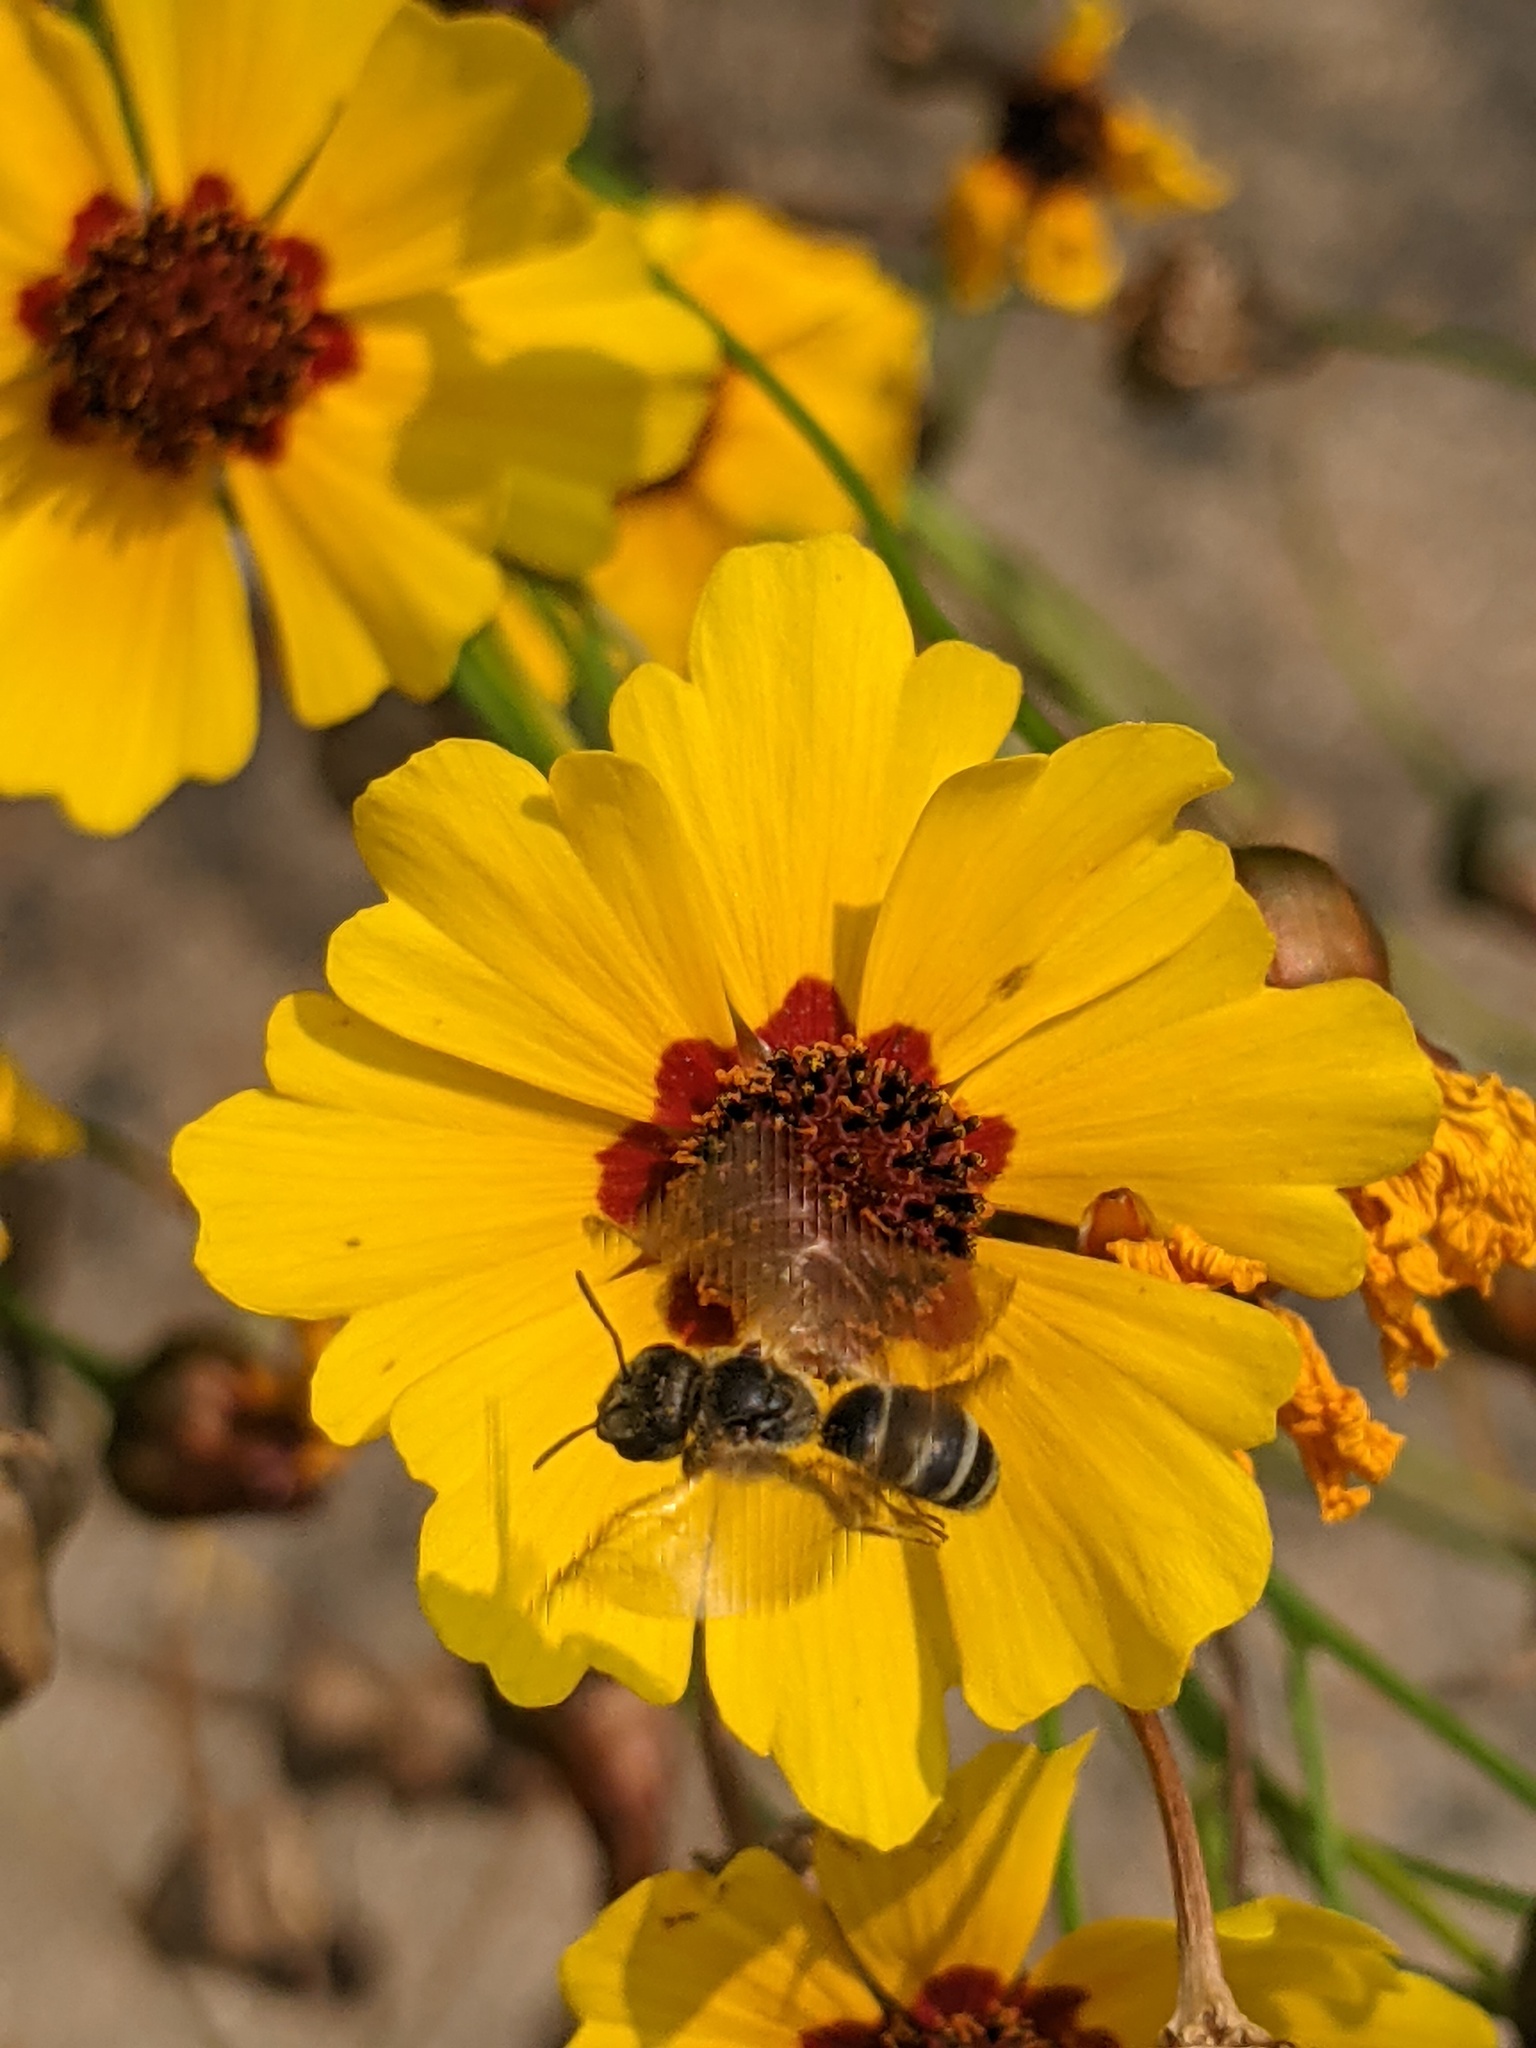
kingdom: Animalia
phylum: Arthropoda
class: Insecta
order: Hymenoptera
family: Halictidae
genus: Halictus
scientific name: Halictus ligatus
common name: Ligated furrow bee
